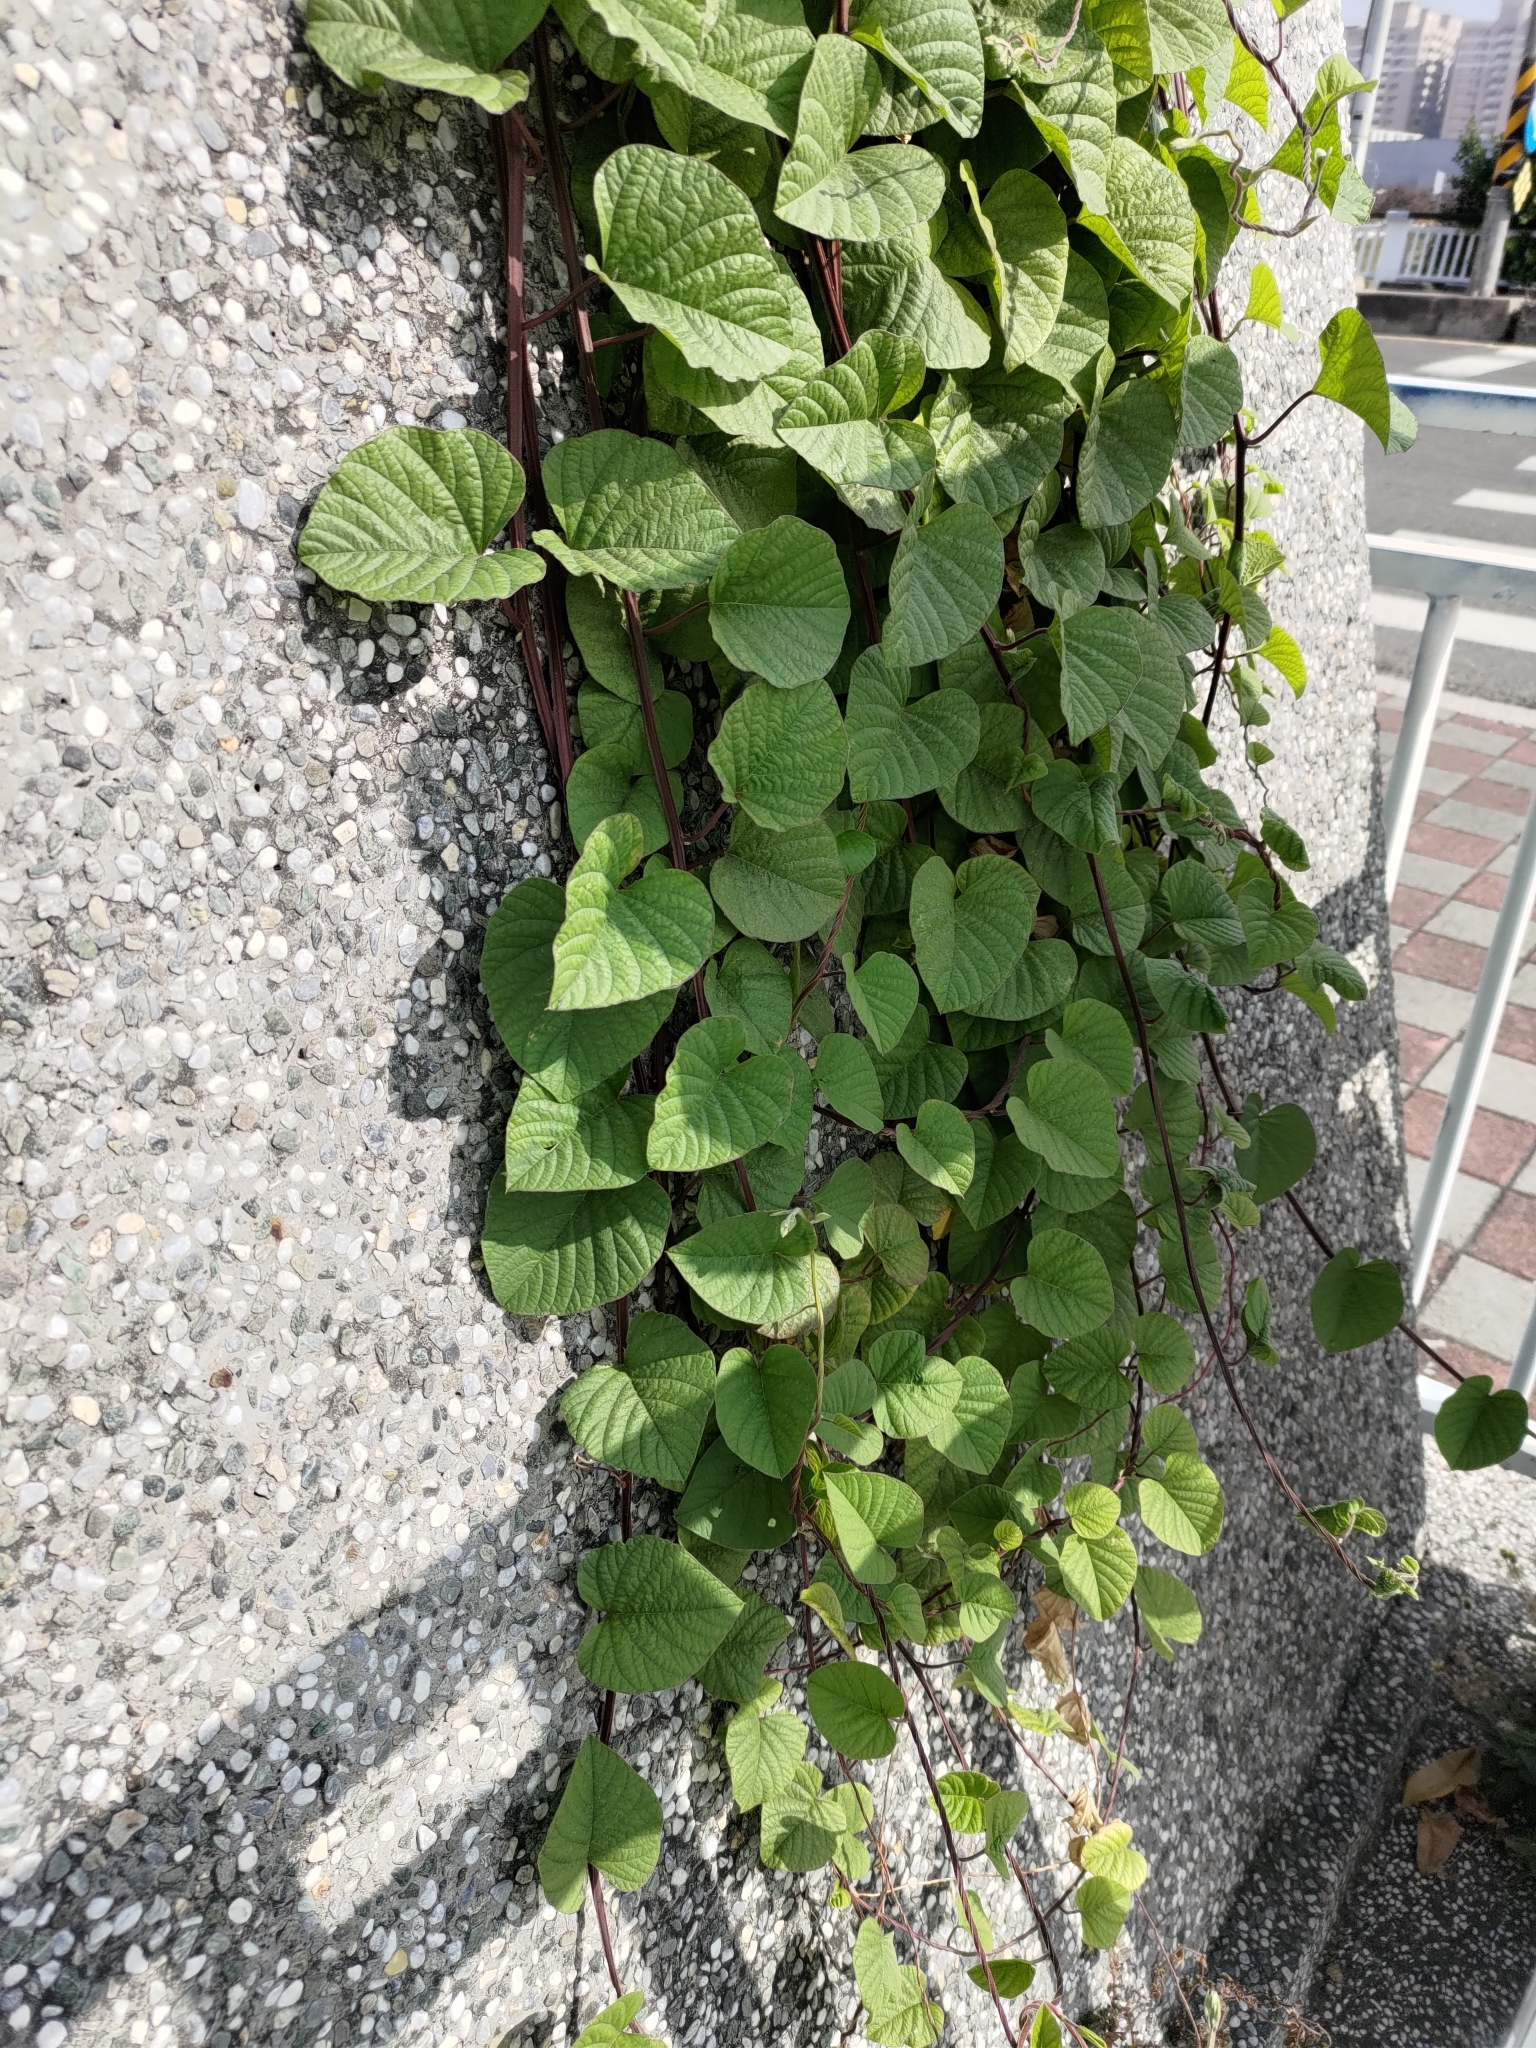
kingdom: Plantae
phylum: Tracheophyta
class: Magnoliopsida
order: Solanales
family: Convolvulaceae
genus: Operculina
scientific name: Operculina turpethum
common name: Transparent wood-rose
